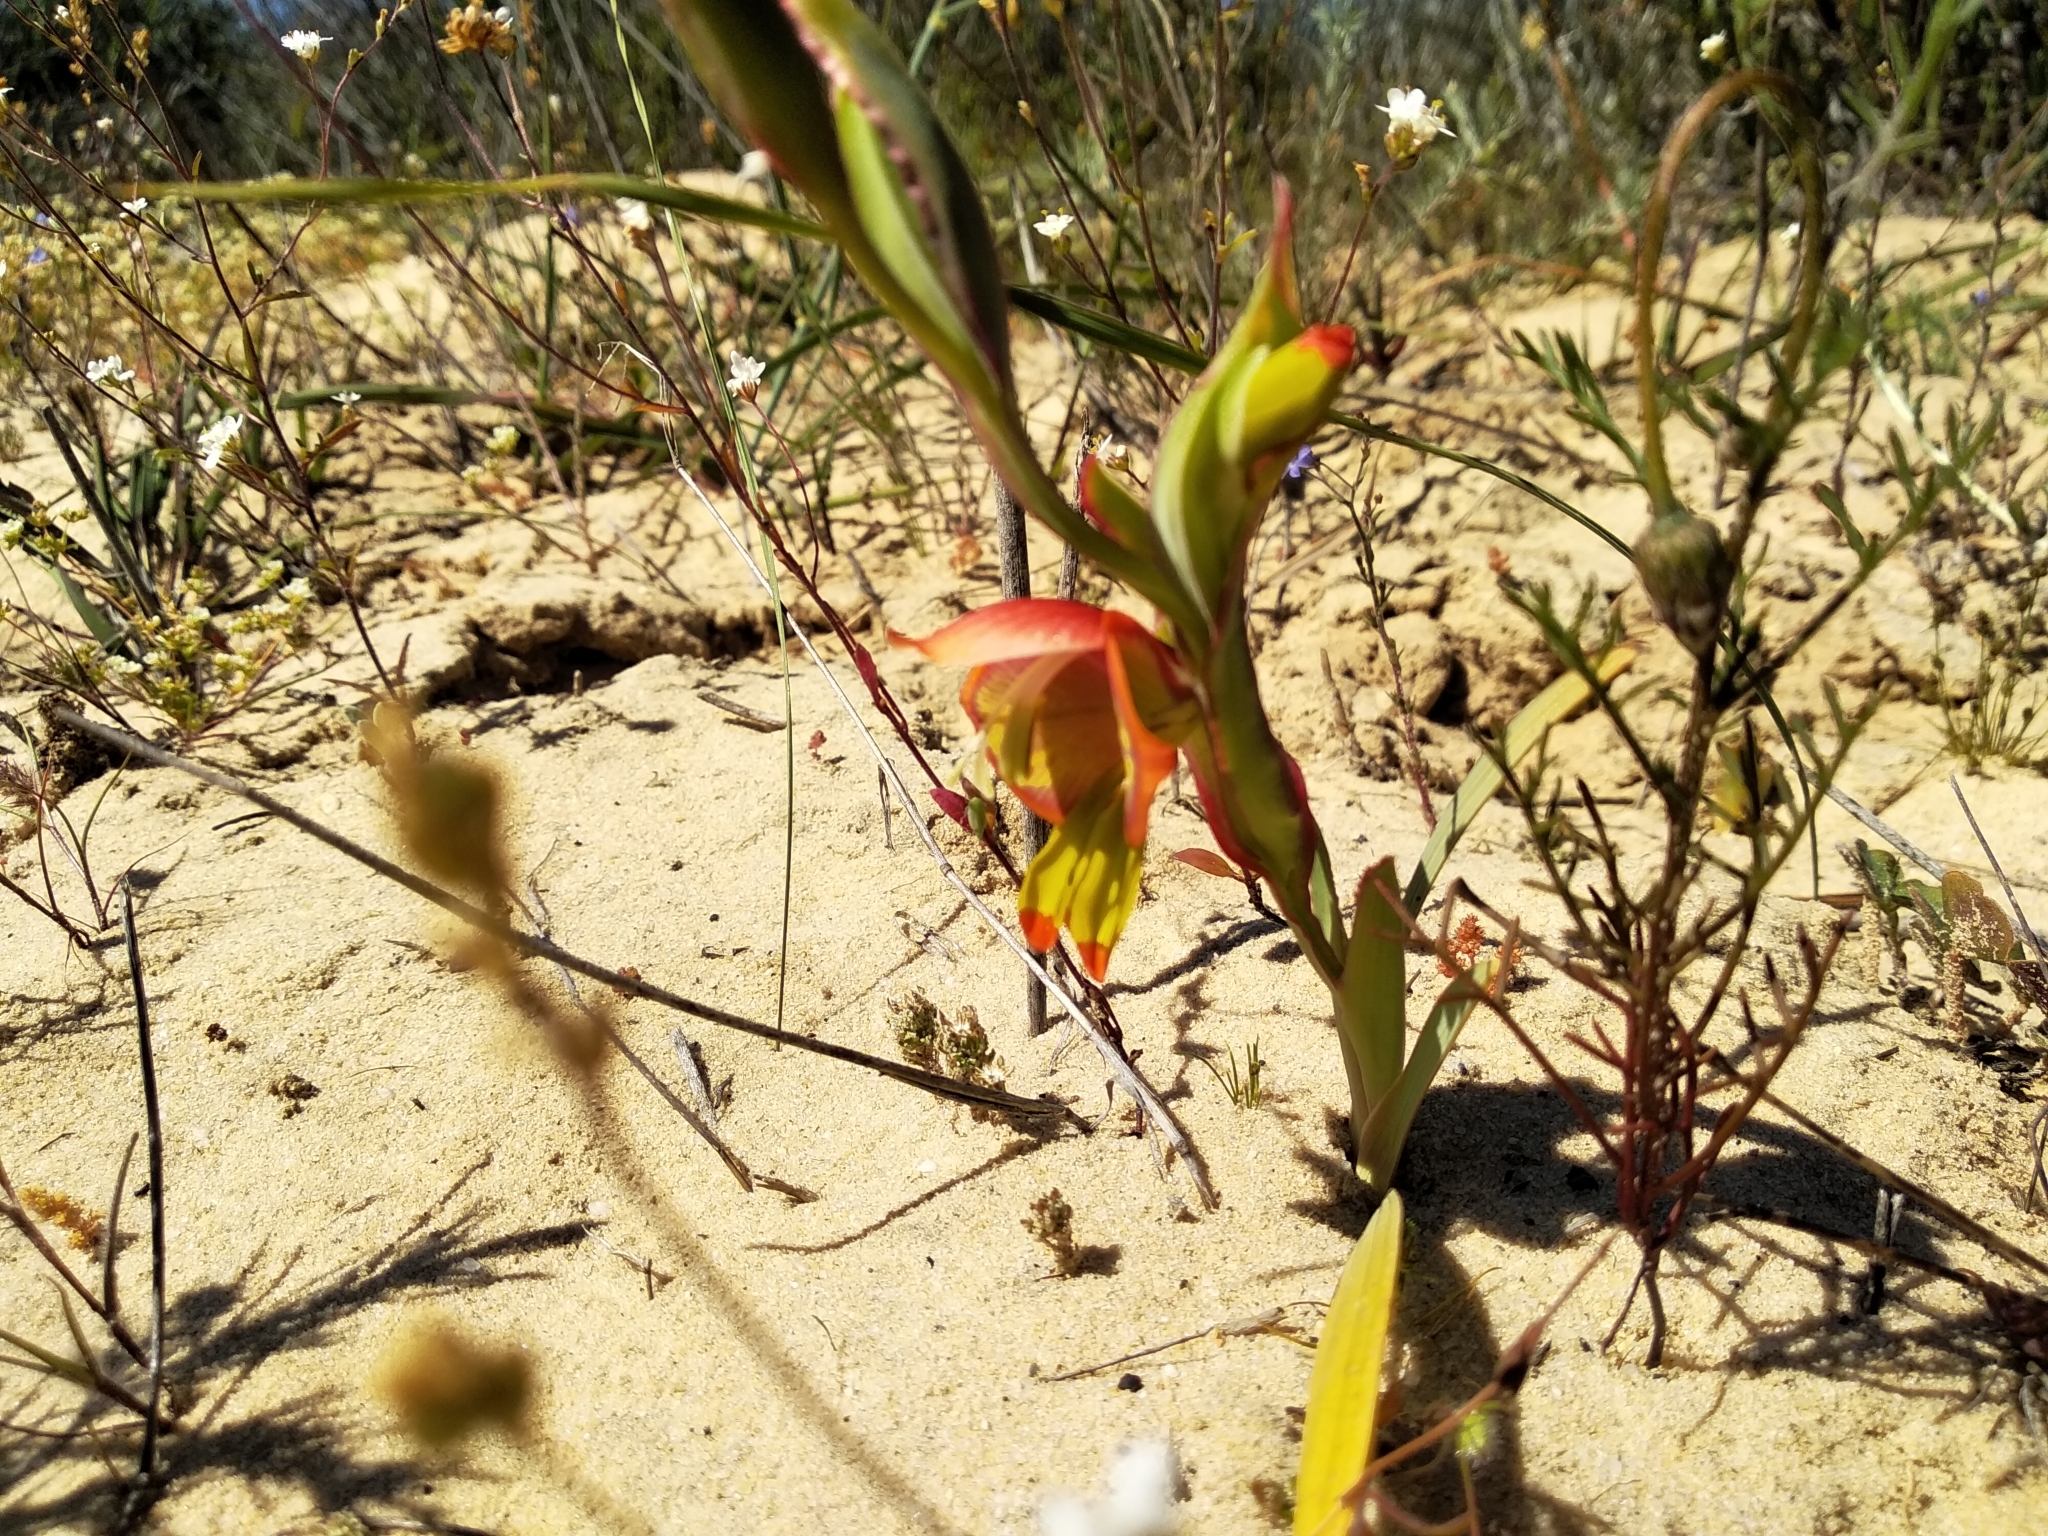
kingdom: Plantae
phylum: Tracheophyta
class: Liliopsida
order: Asparagales
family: Iridaceae
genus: Gladiolus
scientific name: Gladiolus speciosus
